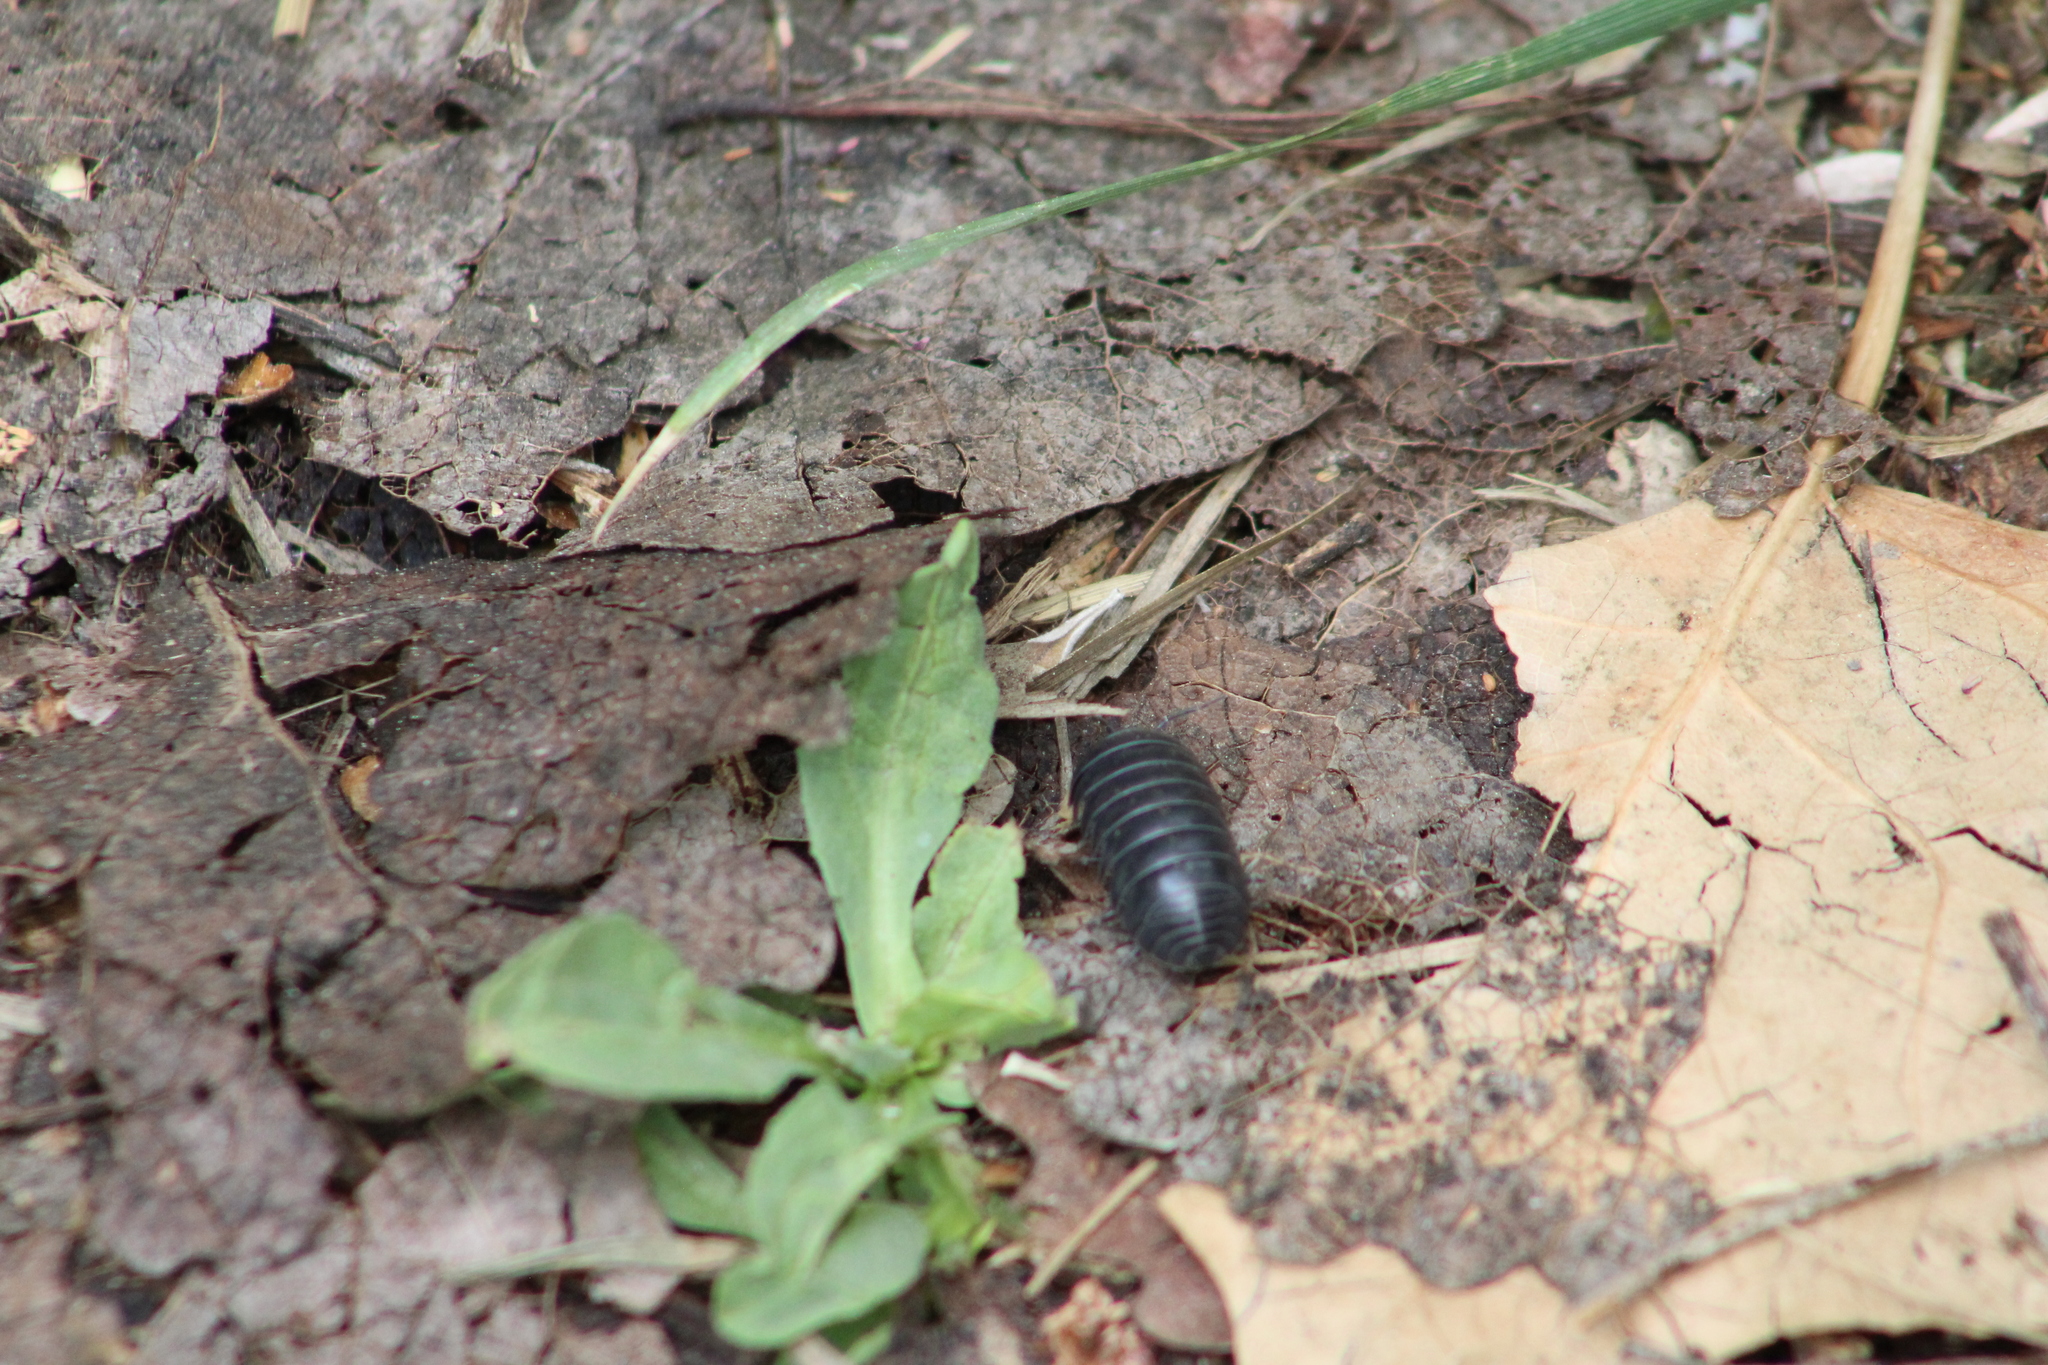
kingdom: Animalia
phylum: Arthropoda
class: Malacostraca
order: Isopoda
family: Armadillidiidae
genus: Armadillidium
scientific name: Armadillidium vulgare
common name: Common pill woodlouse
